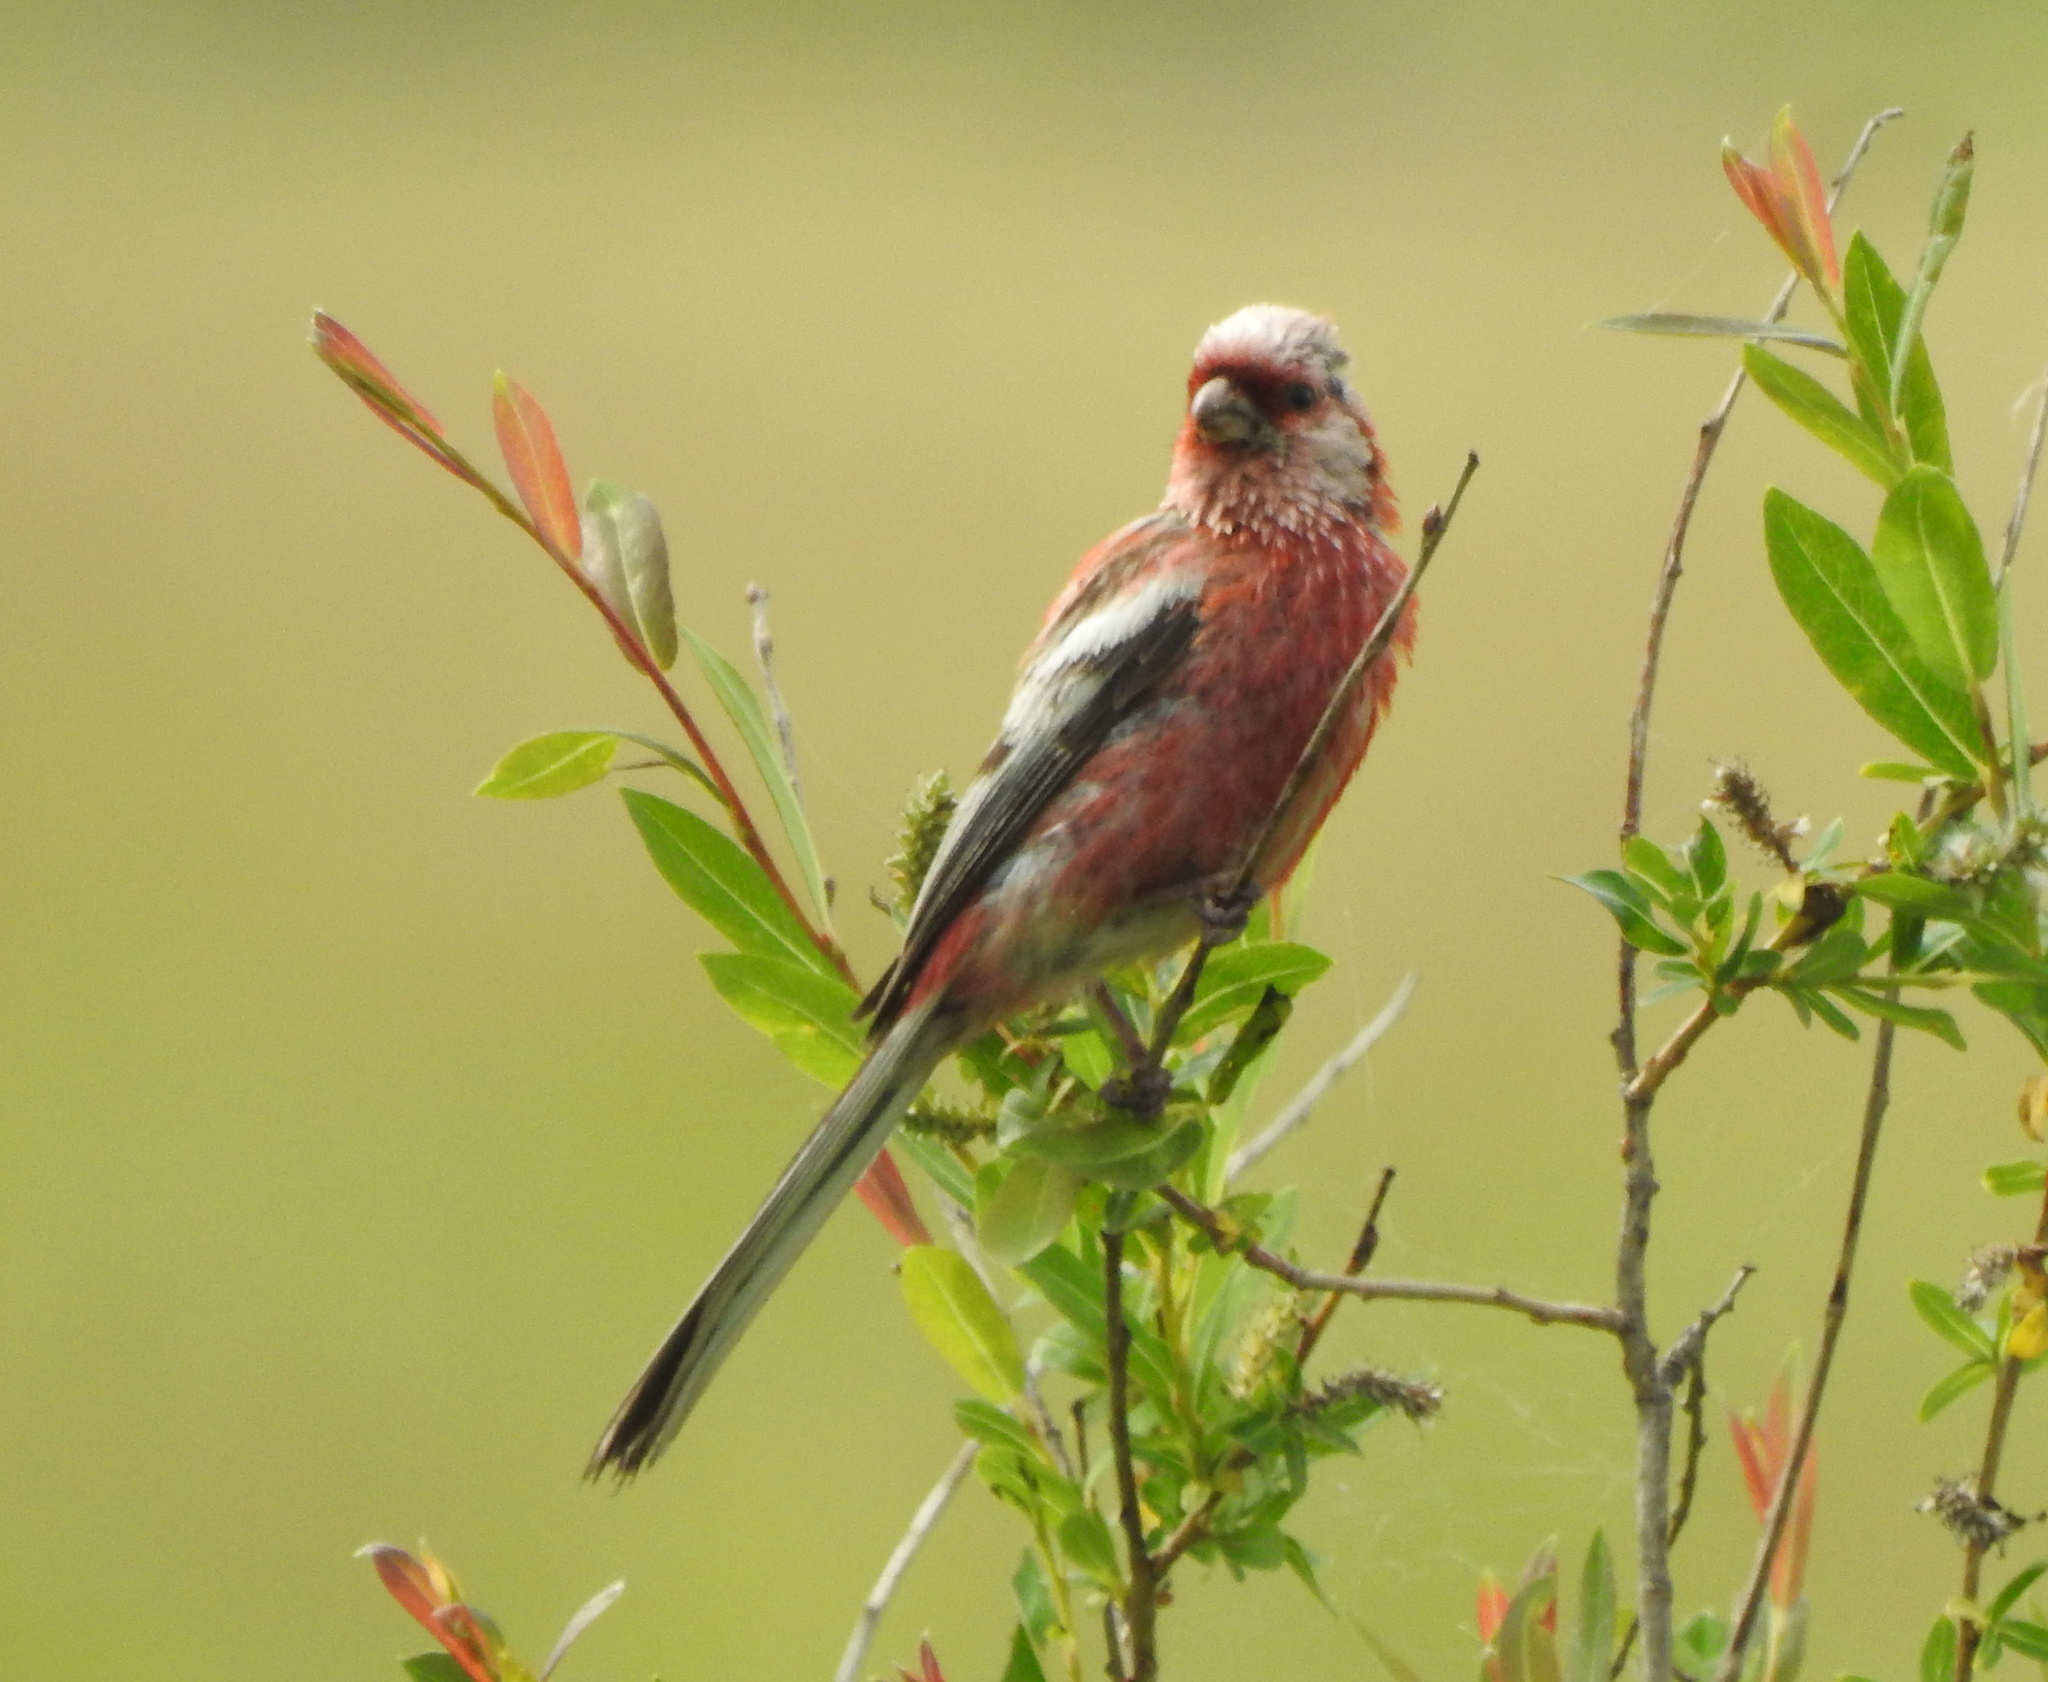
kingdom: Animalia
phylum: Chordata
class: Aves
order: Passeriformes
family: Fringillidae
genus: Carpodacus
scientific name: Carpodacus sibiricus
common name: Long-tailed rosefinch
